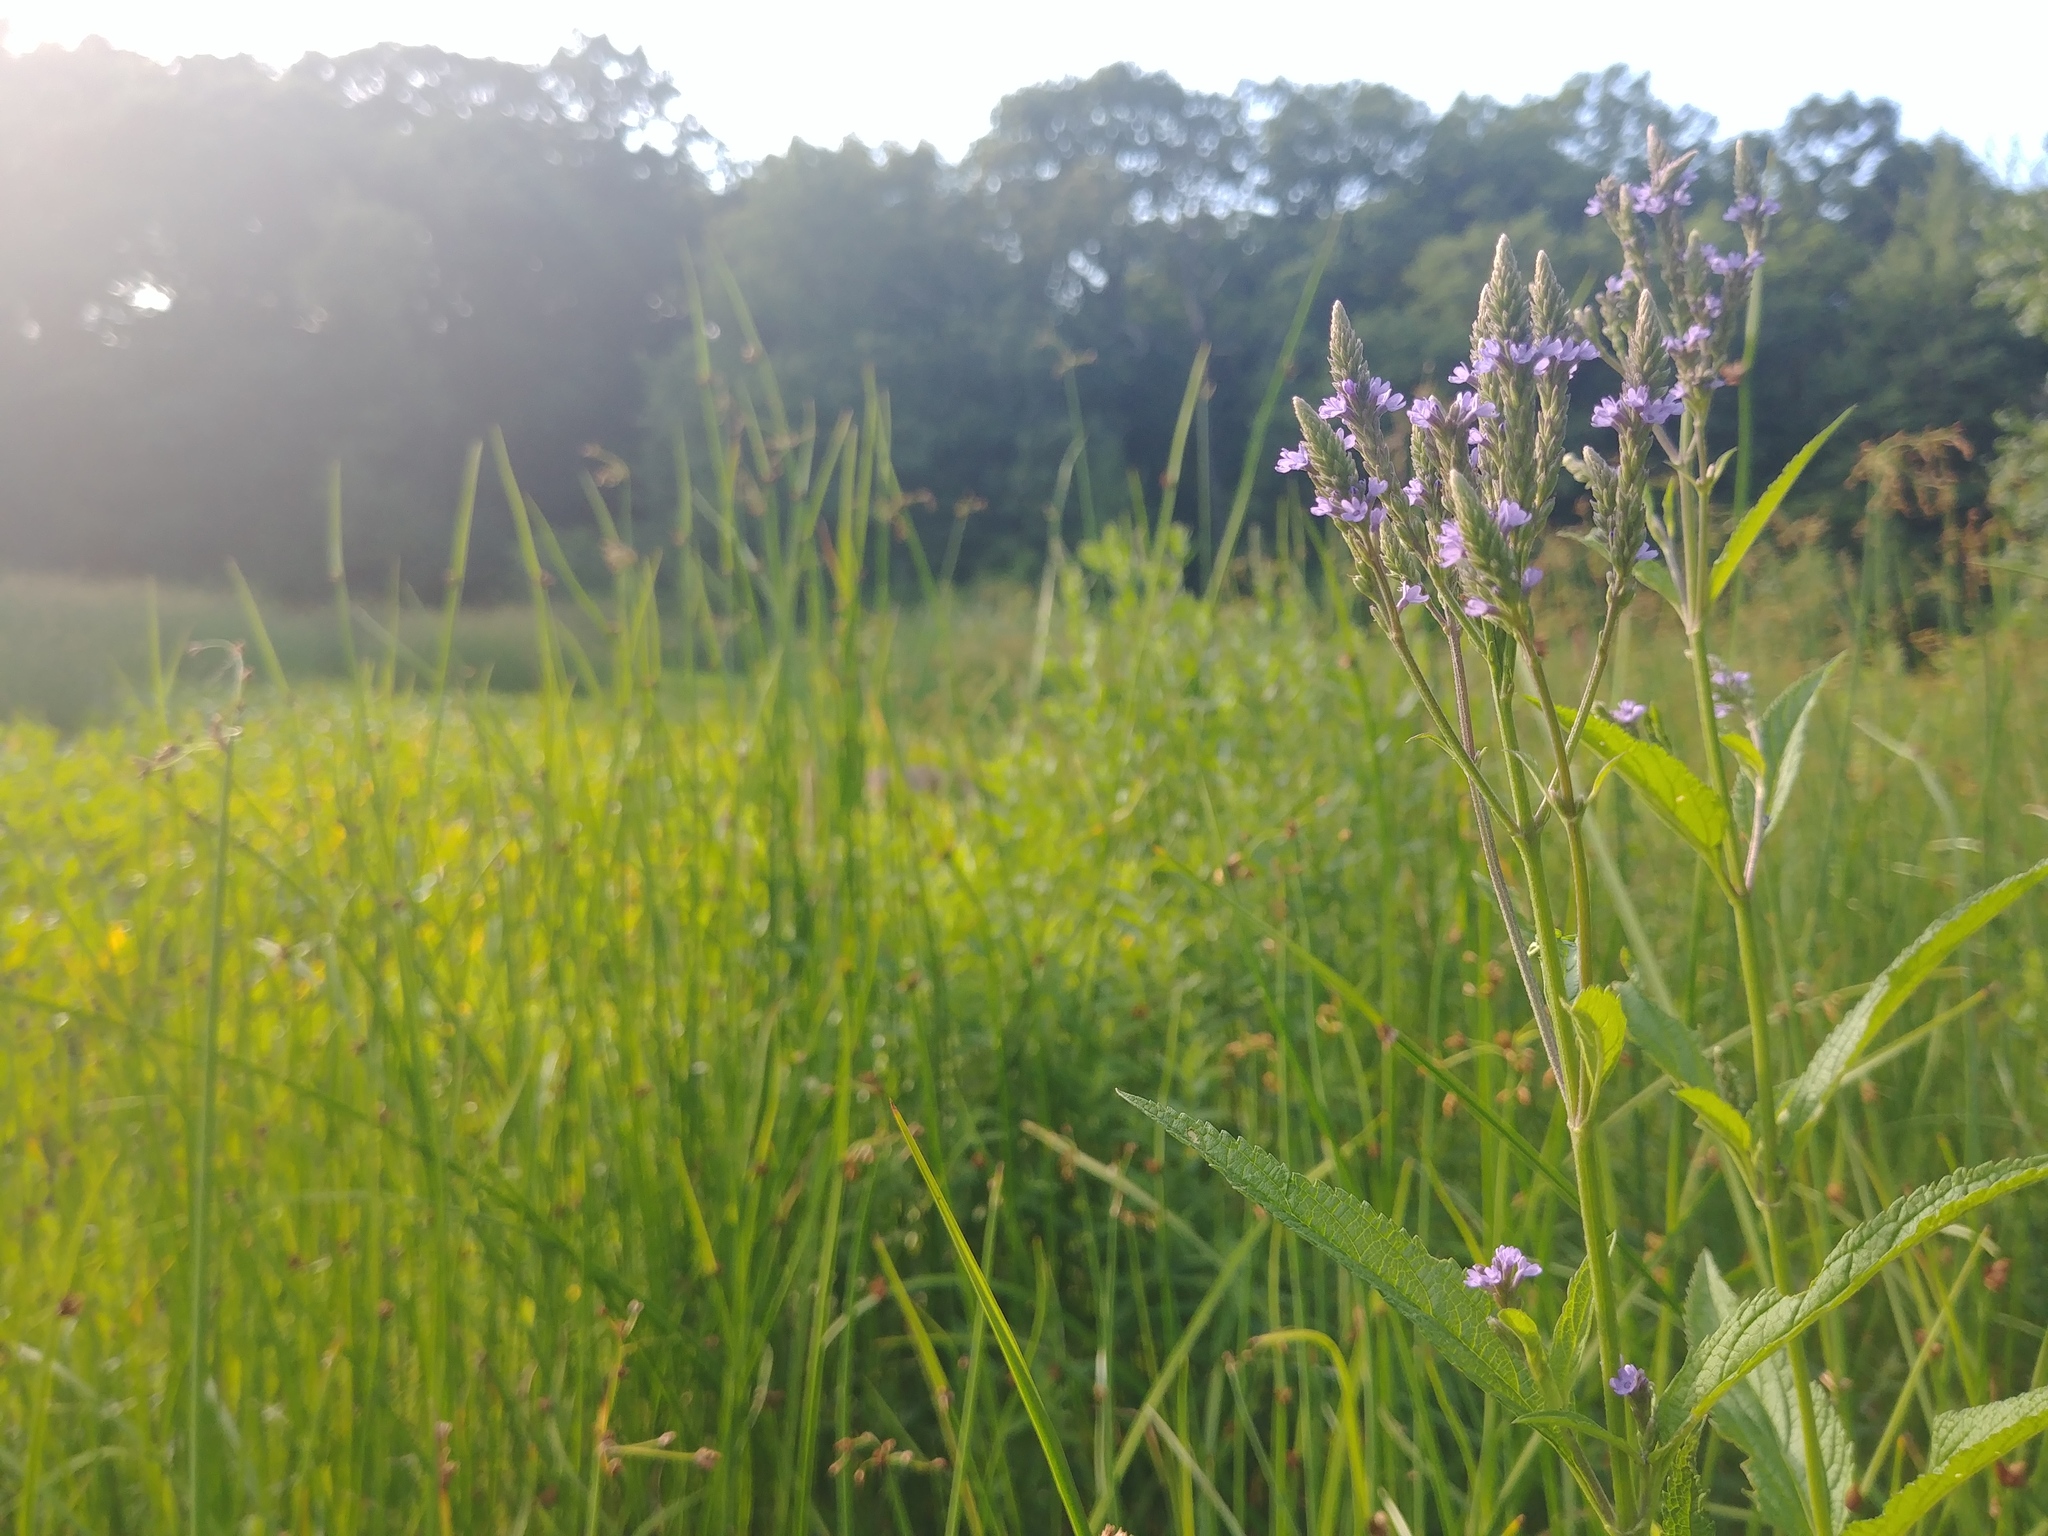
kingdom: Plantae
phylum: Tracheophyta
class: Magnoliopsida
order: Lamiales
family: Verbenaceae
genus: Verbena
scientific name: Verbena hastata
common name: American blue vervain
